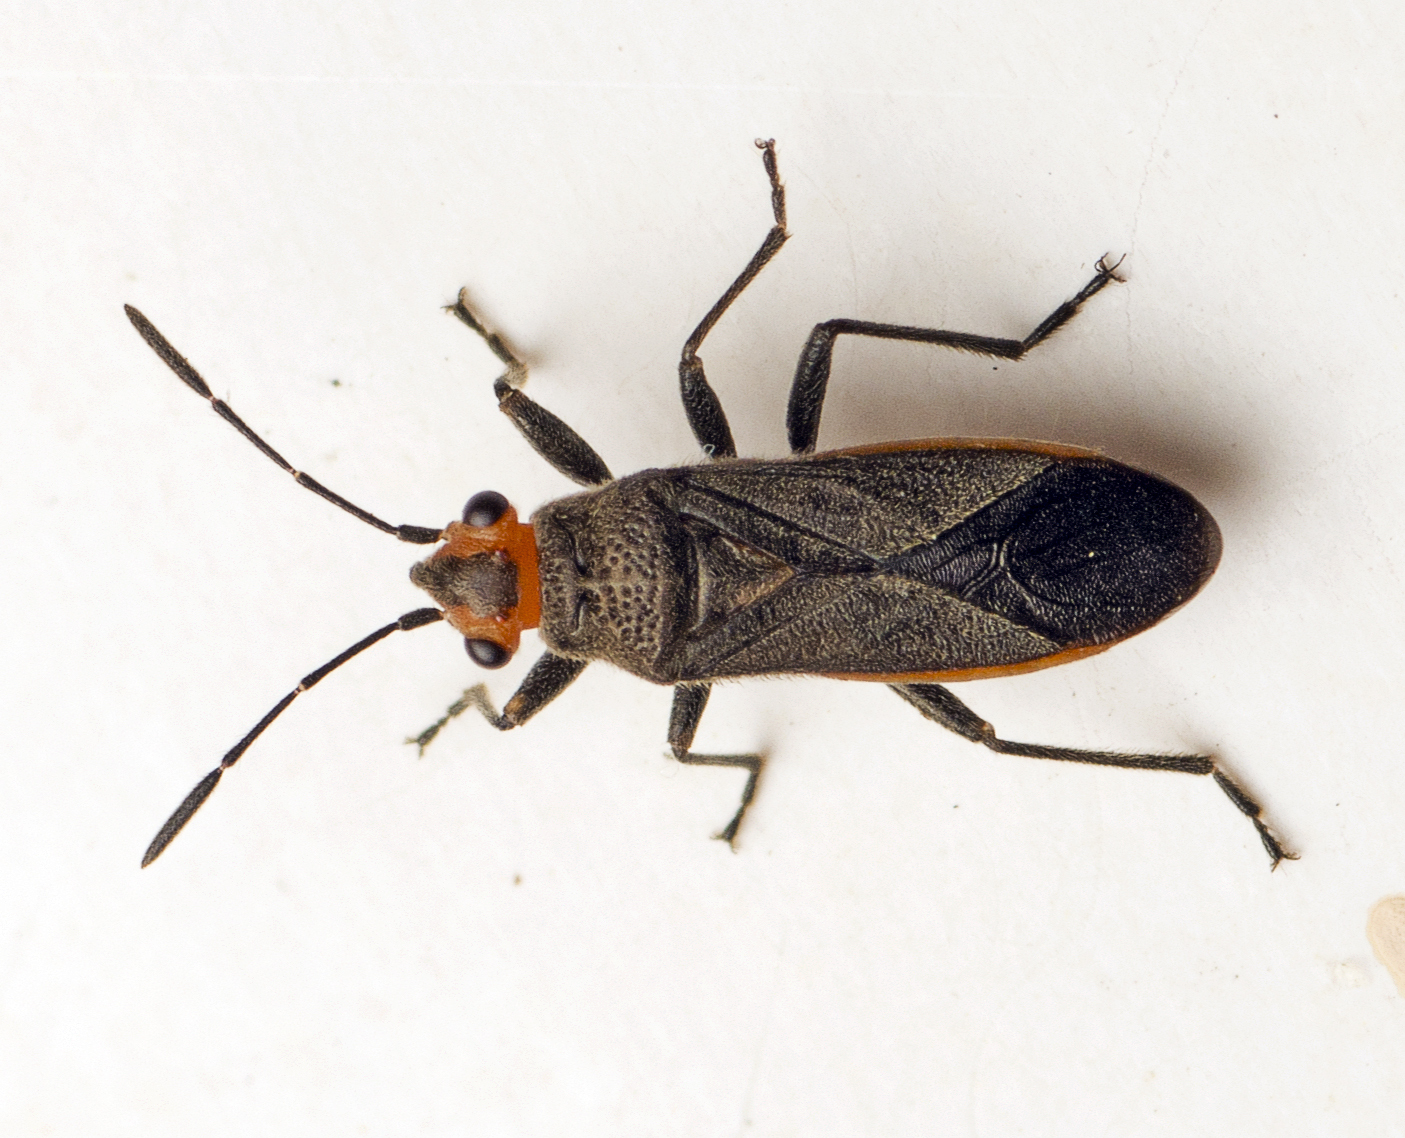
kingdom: Animalia
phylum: Arthropoda
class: Insecta
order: Hemiptera
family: Lygaeidae
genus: Arocatus
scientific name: Arocatus aenescens
